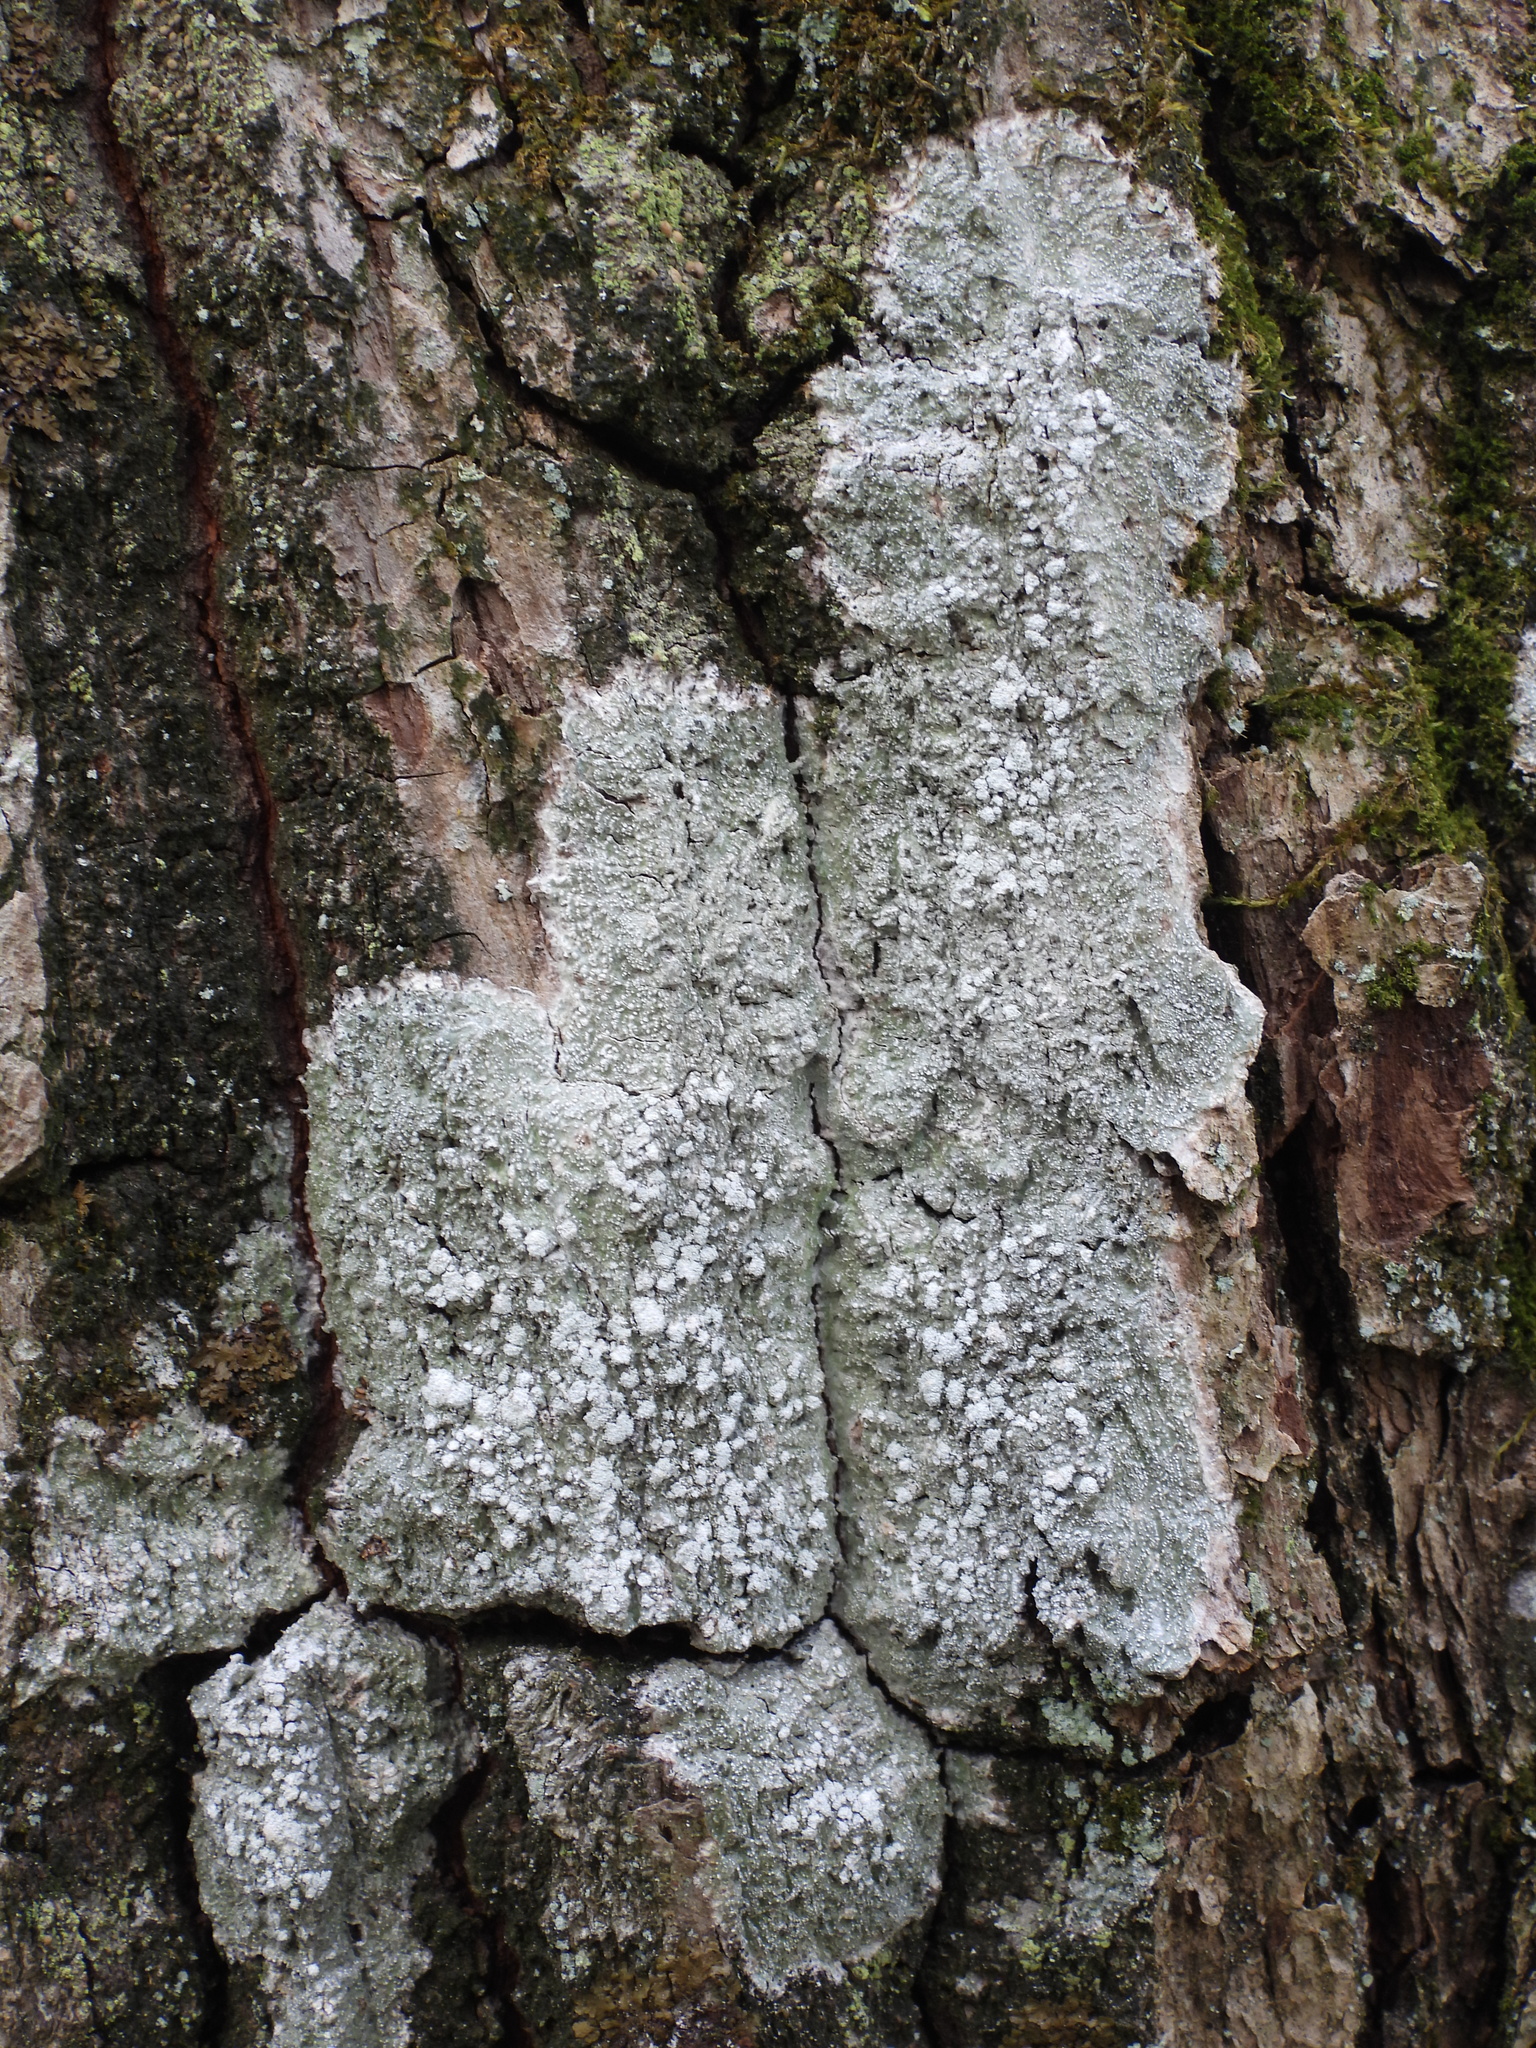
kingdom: Fungi
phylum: Ascomycota
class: Lecanoromycetes
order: Pertusariales
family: Pertusariaceae
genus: Lepra
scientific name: Lepra amara
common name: Bitter wart lichen
